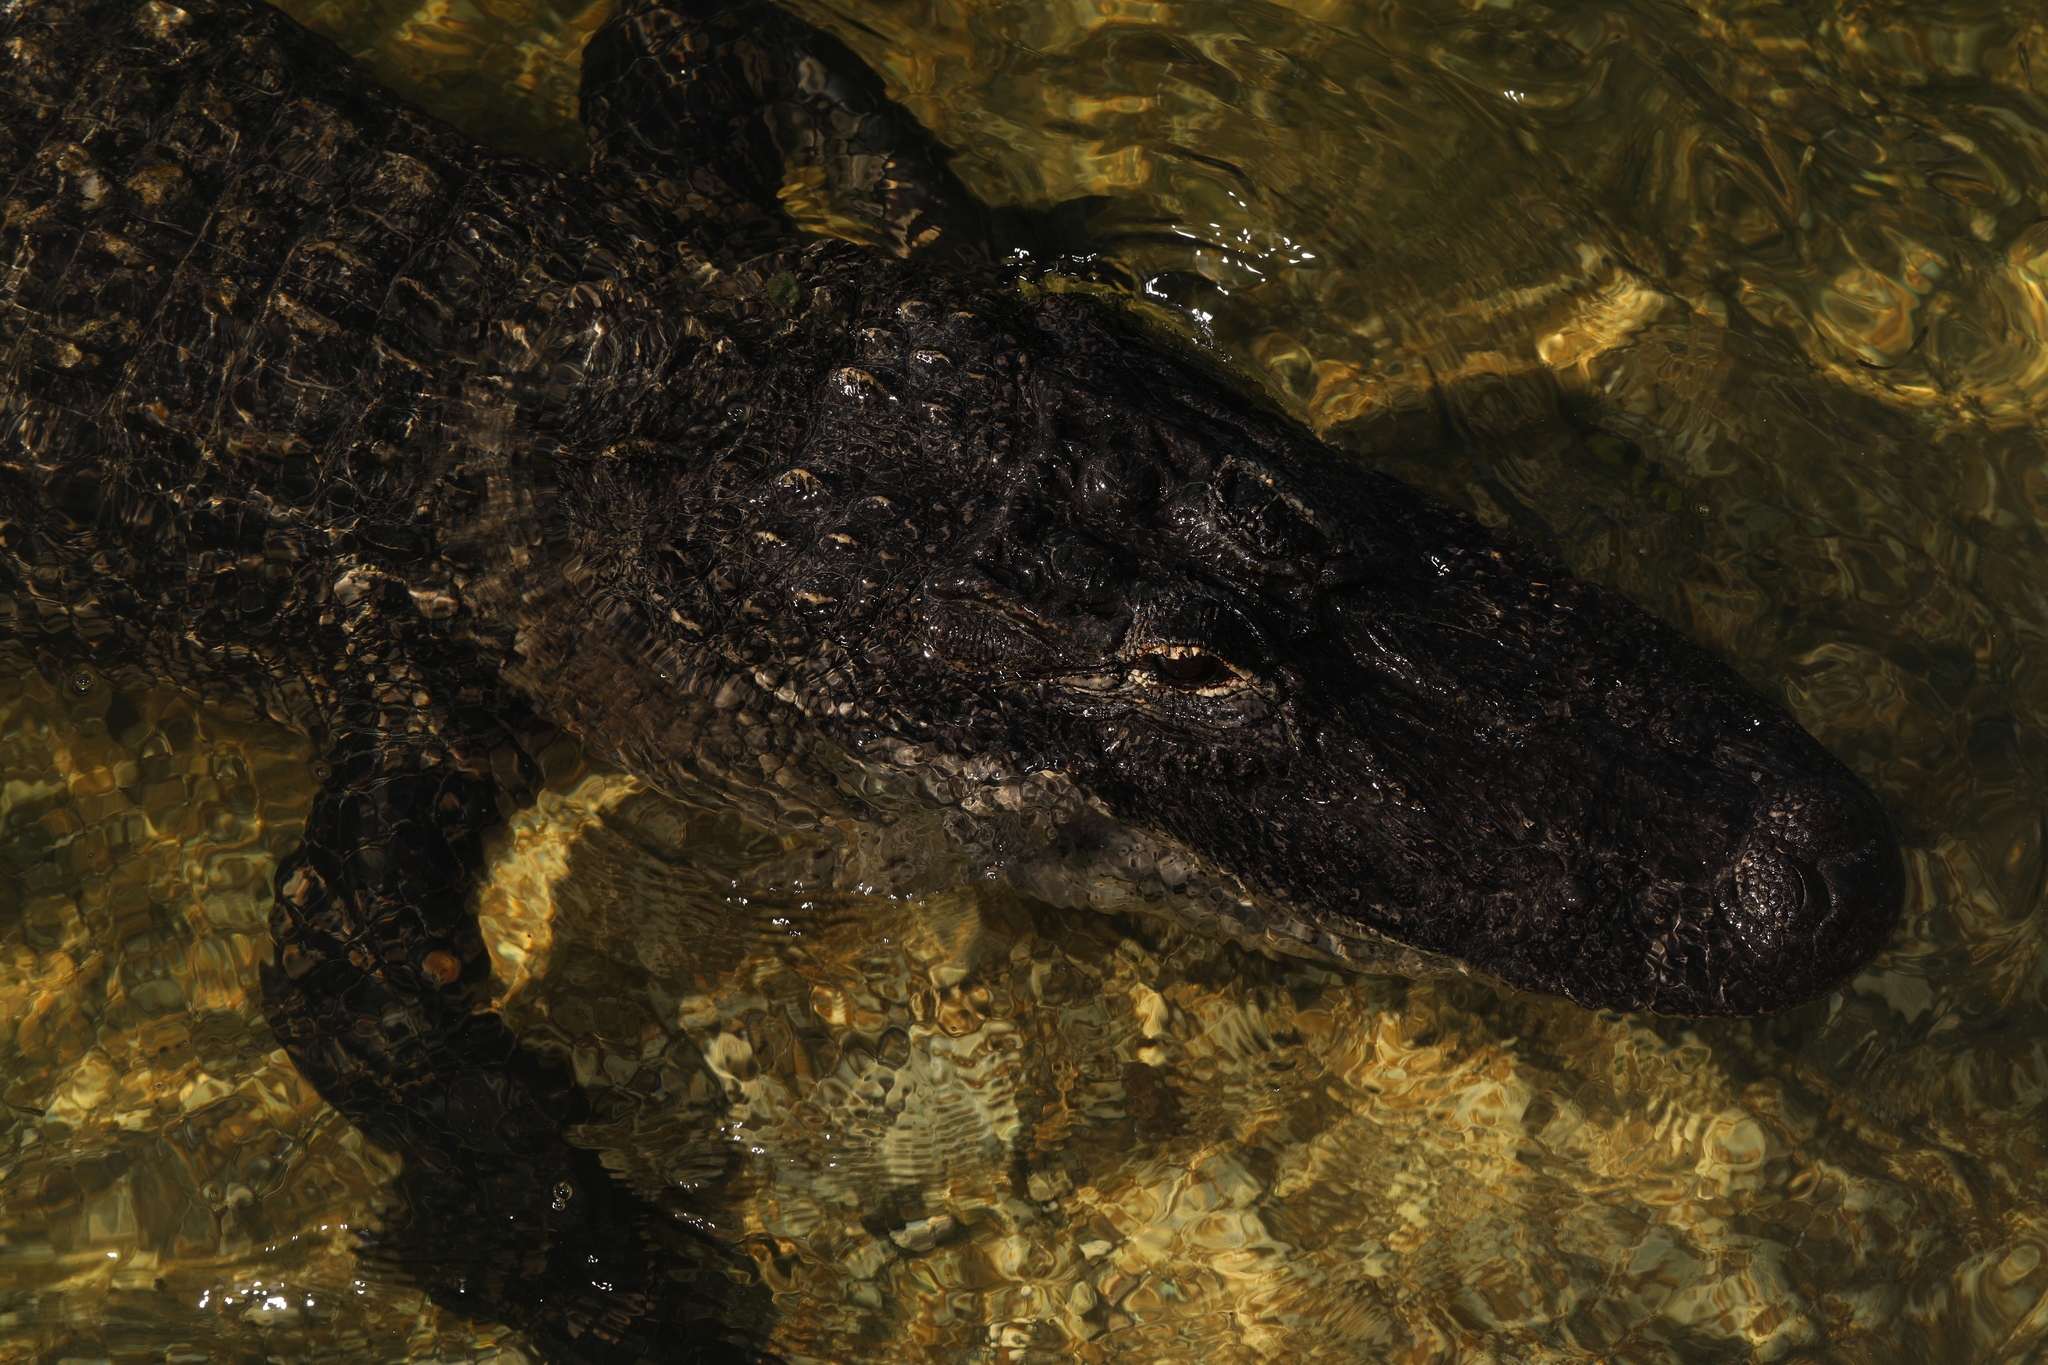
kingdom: Animalia
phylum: Chordata
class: Crocodylia
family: Alligatoridae
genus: Alligator
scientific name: Alligator mississippiensis
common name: American alligator
